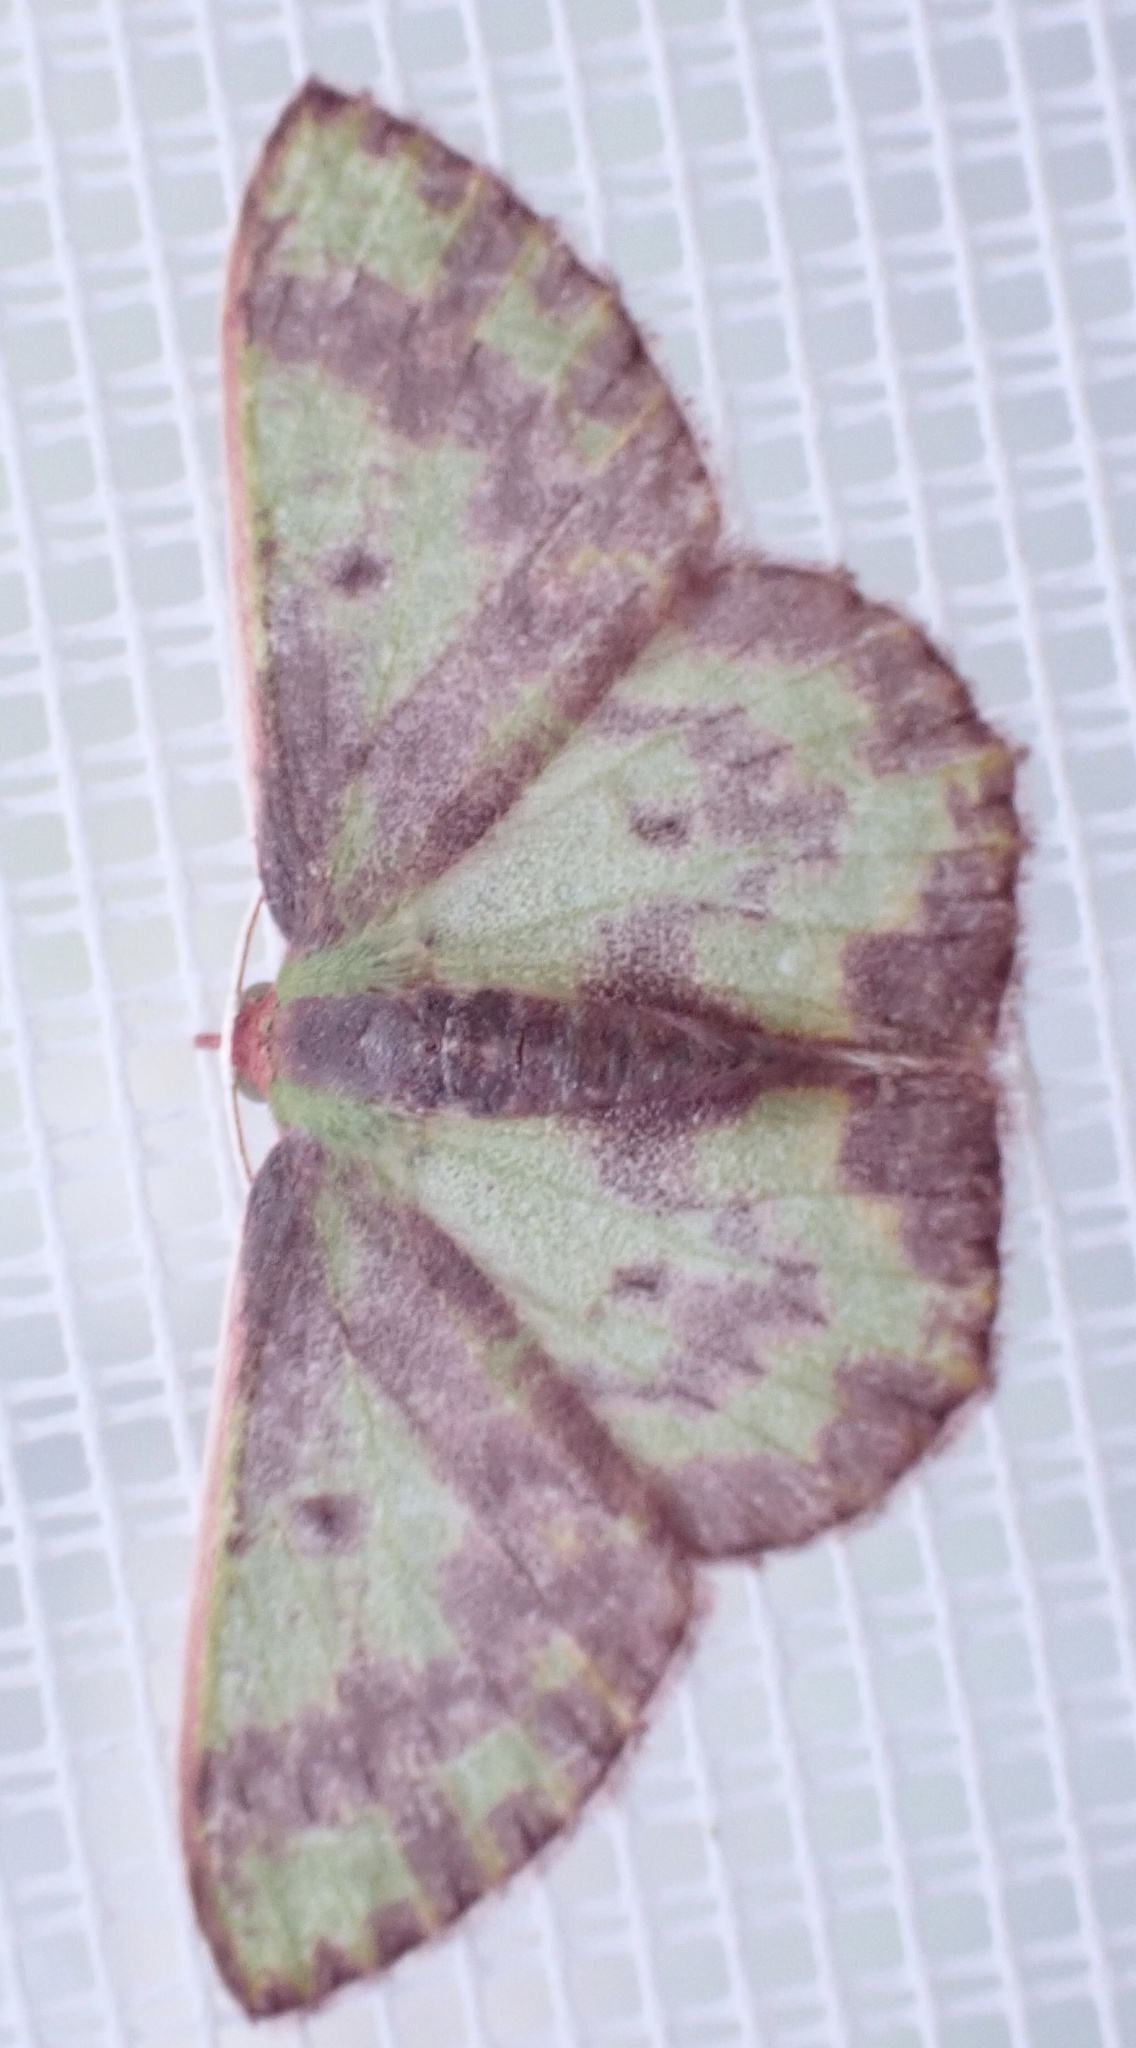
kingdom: Animalia
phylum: Arthropoda
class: Insecta
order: Lepidoptera
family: Geometridae
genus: Prasinocyma
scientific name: Prasinocyma rhodocosma
